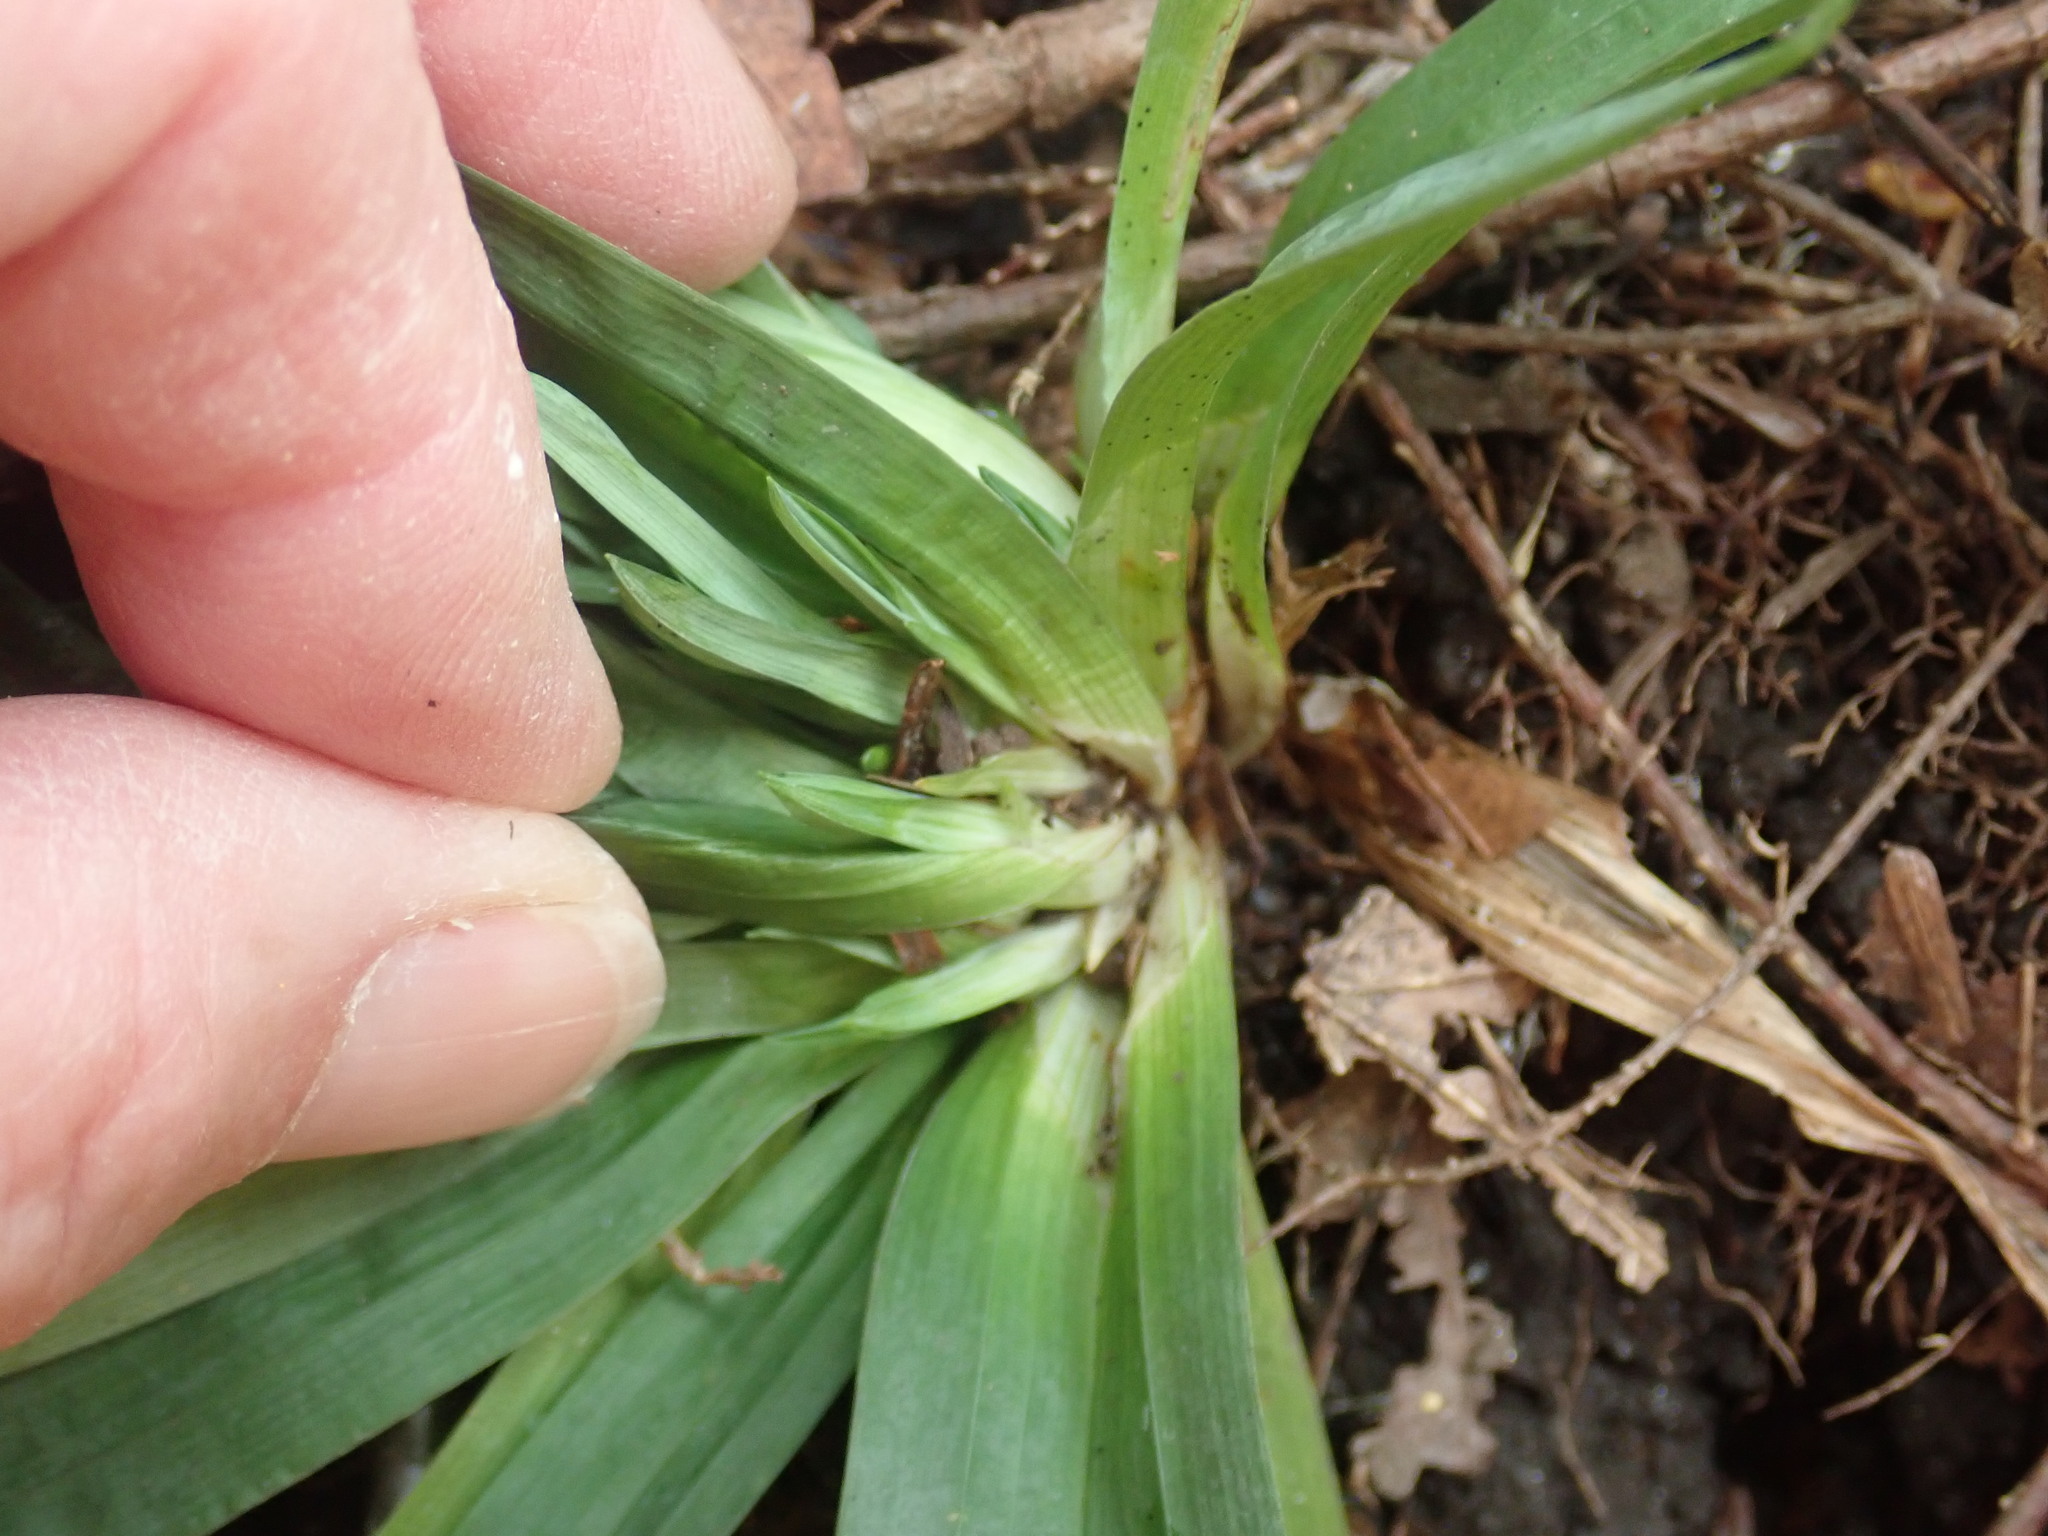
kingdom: Plantae
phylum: Tracheophyta
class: Liliopsida
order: Poales
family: Cyperaceae
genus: Carex
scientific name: Carex platyphylla
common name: Broad-leaved sedge
